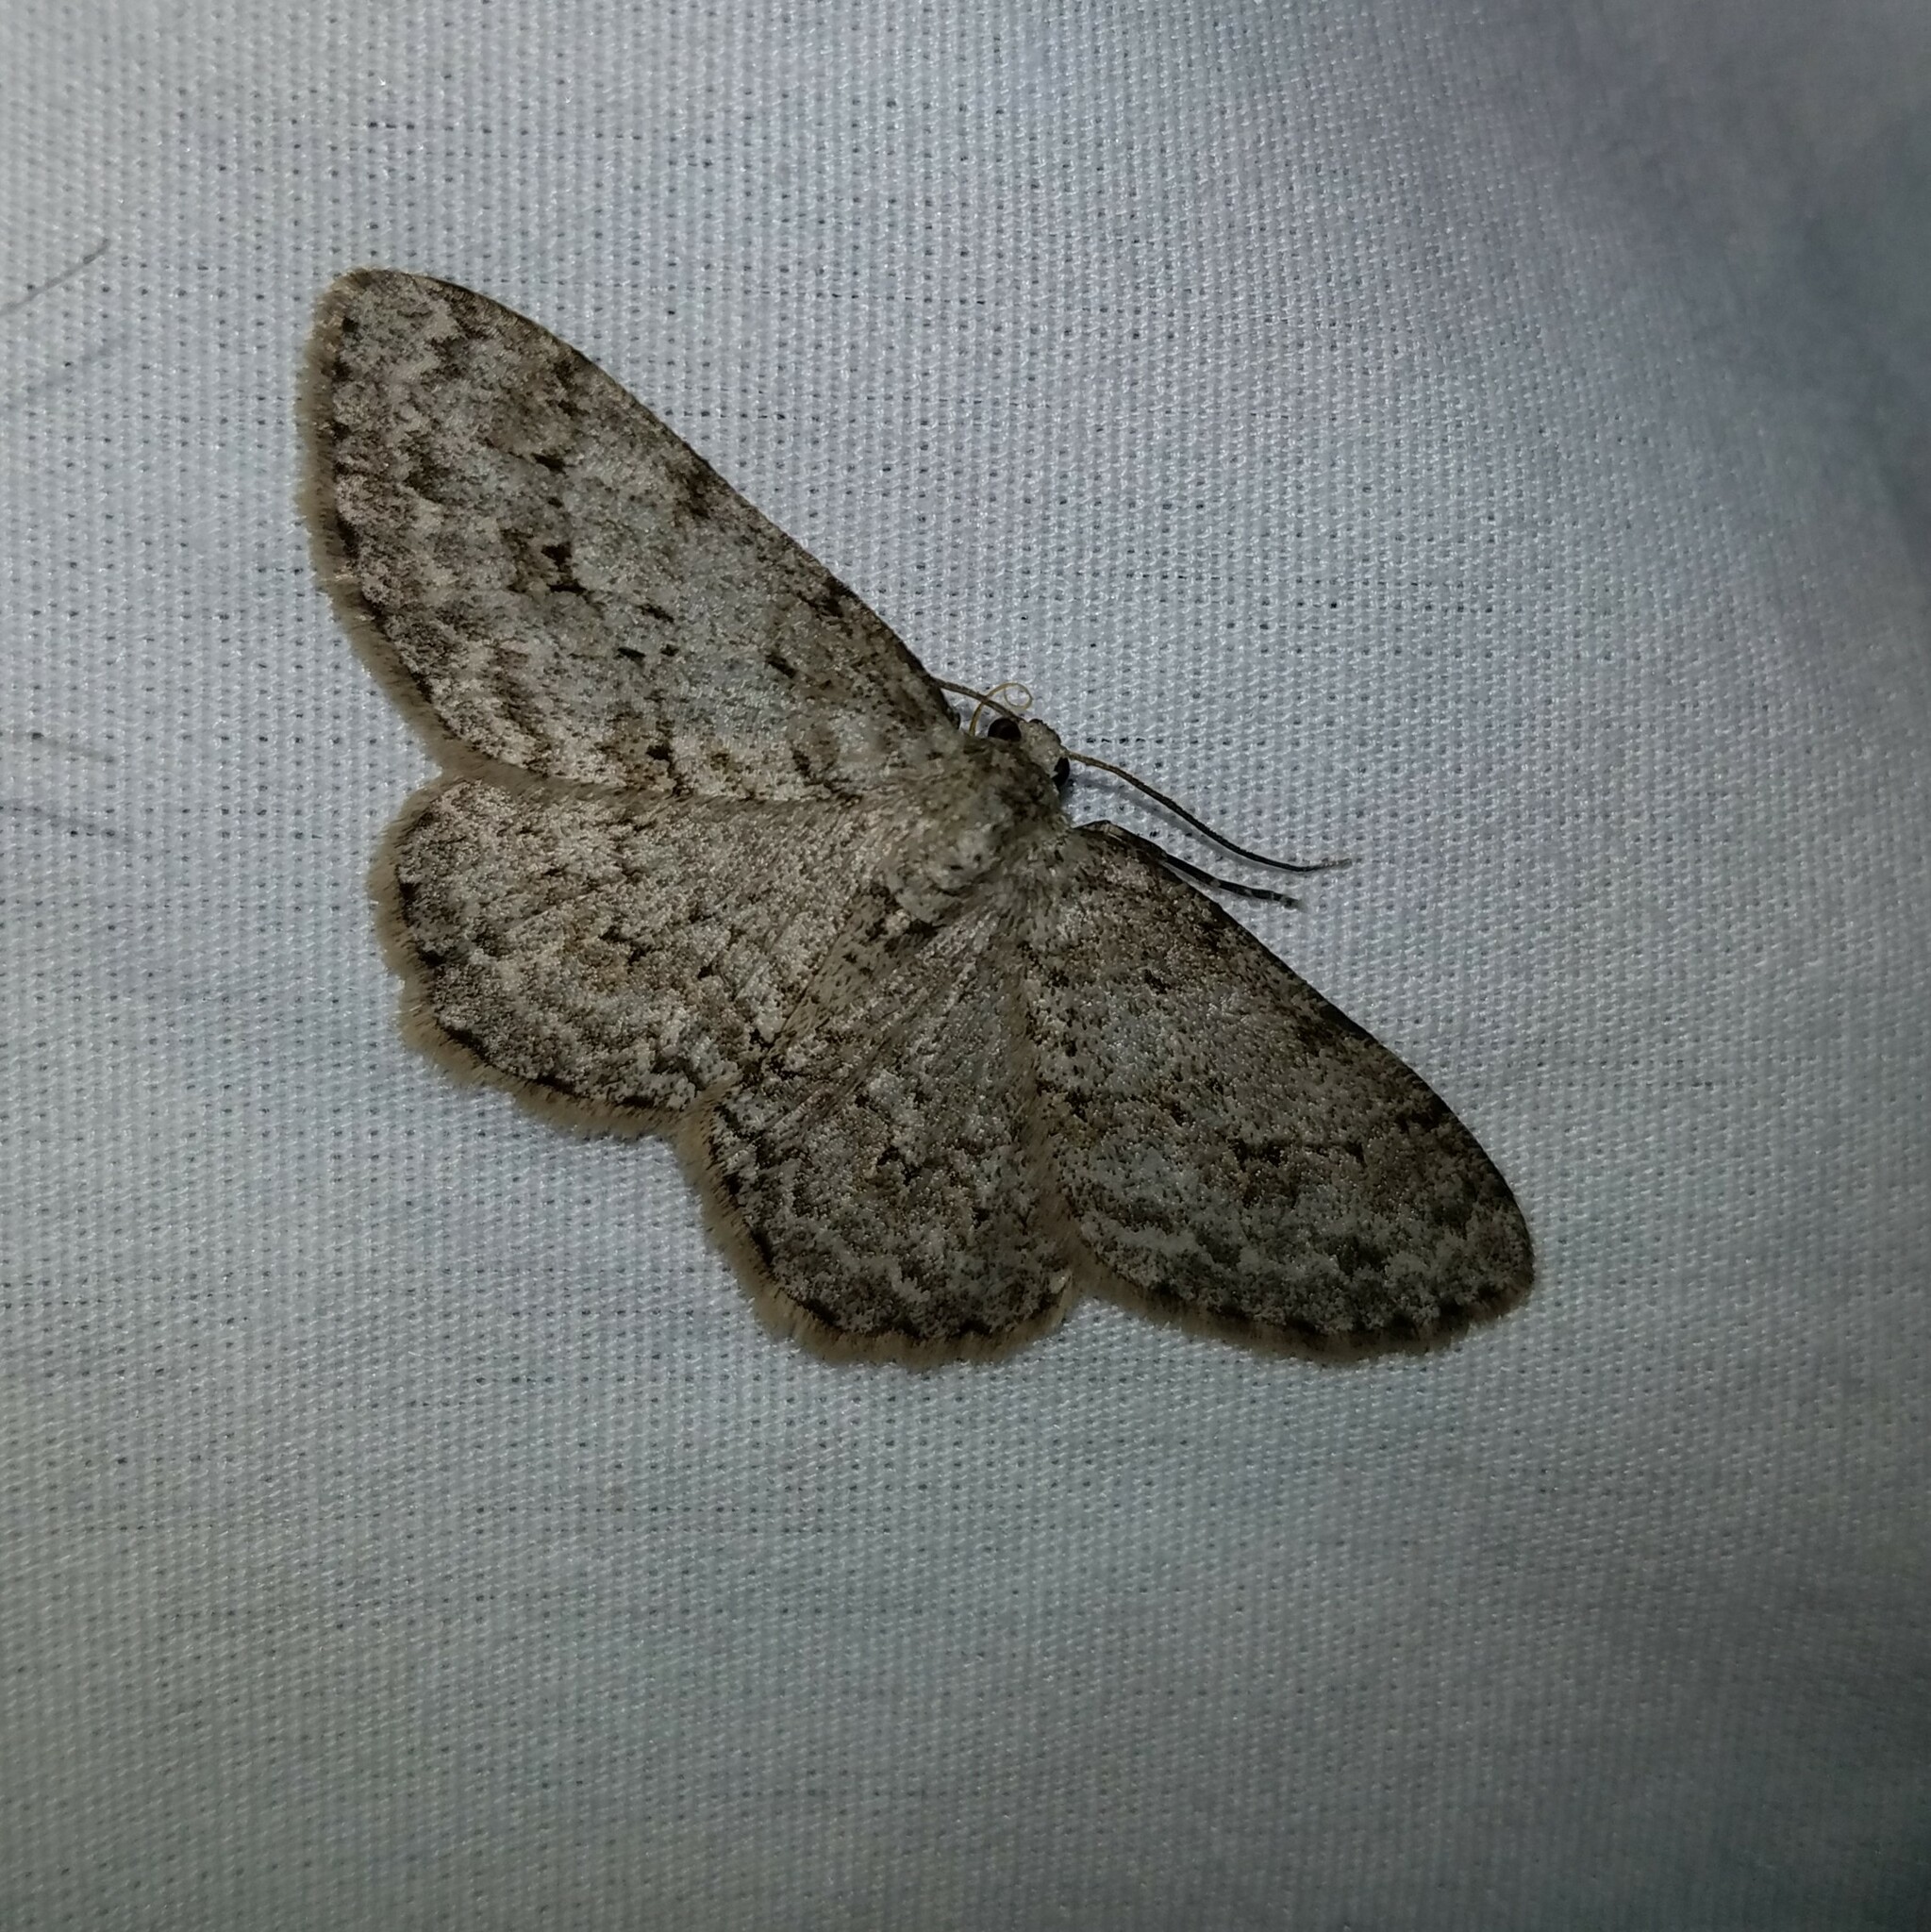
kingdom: Animalia
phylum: Arthropoda
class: Insecta
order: Lepidoptera
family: Geometridae
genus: Ectropis
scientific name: Ectropis crepuscularia
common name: Engrailed
